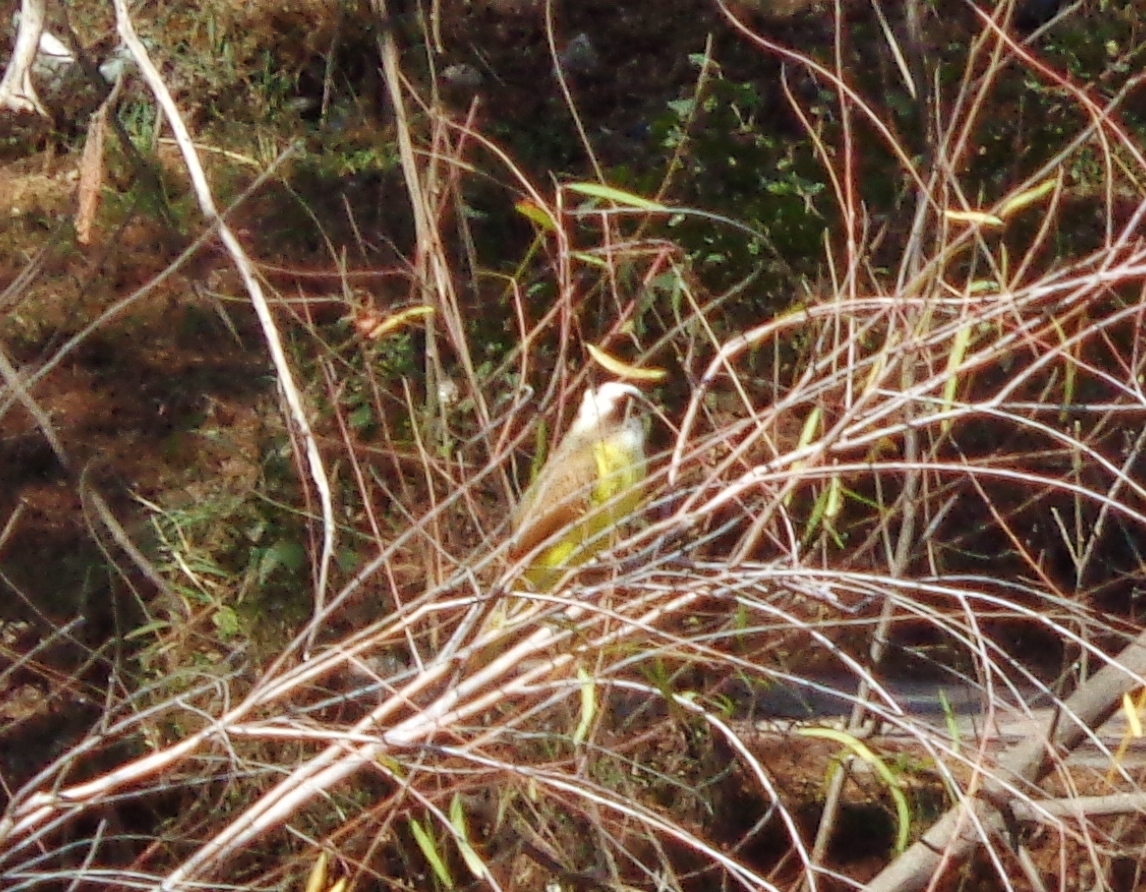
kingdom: Animalia
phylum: Chordata
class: Aves
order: Passeriformes
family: Tyrannidae
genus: Pitangus
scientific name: Pitangus sulphuratus
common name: Great kiskadee
